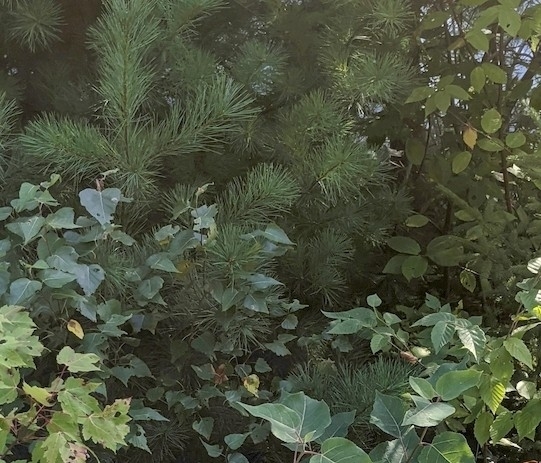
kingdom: Plantae
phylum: Tracheophyta
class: Pinopsida
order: Pinales
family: Pinaceae
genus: Pinus
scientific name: Pinus strobus
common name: Weymouth pine
